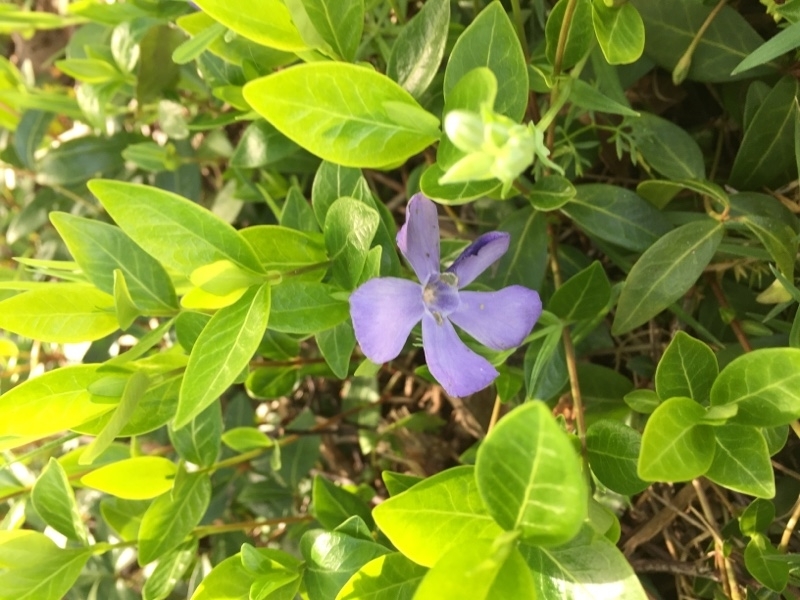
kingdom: Plantae
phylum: Tracheophyta
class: Magnoliopsida
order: Gentianales
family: Apocynaceae
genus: Vinca
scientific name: Vinca minor
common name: Lesser periwinkle
